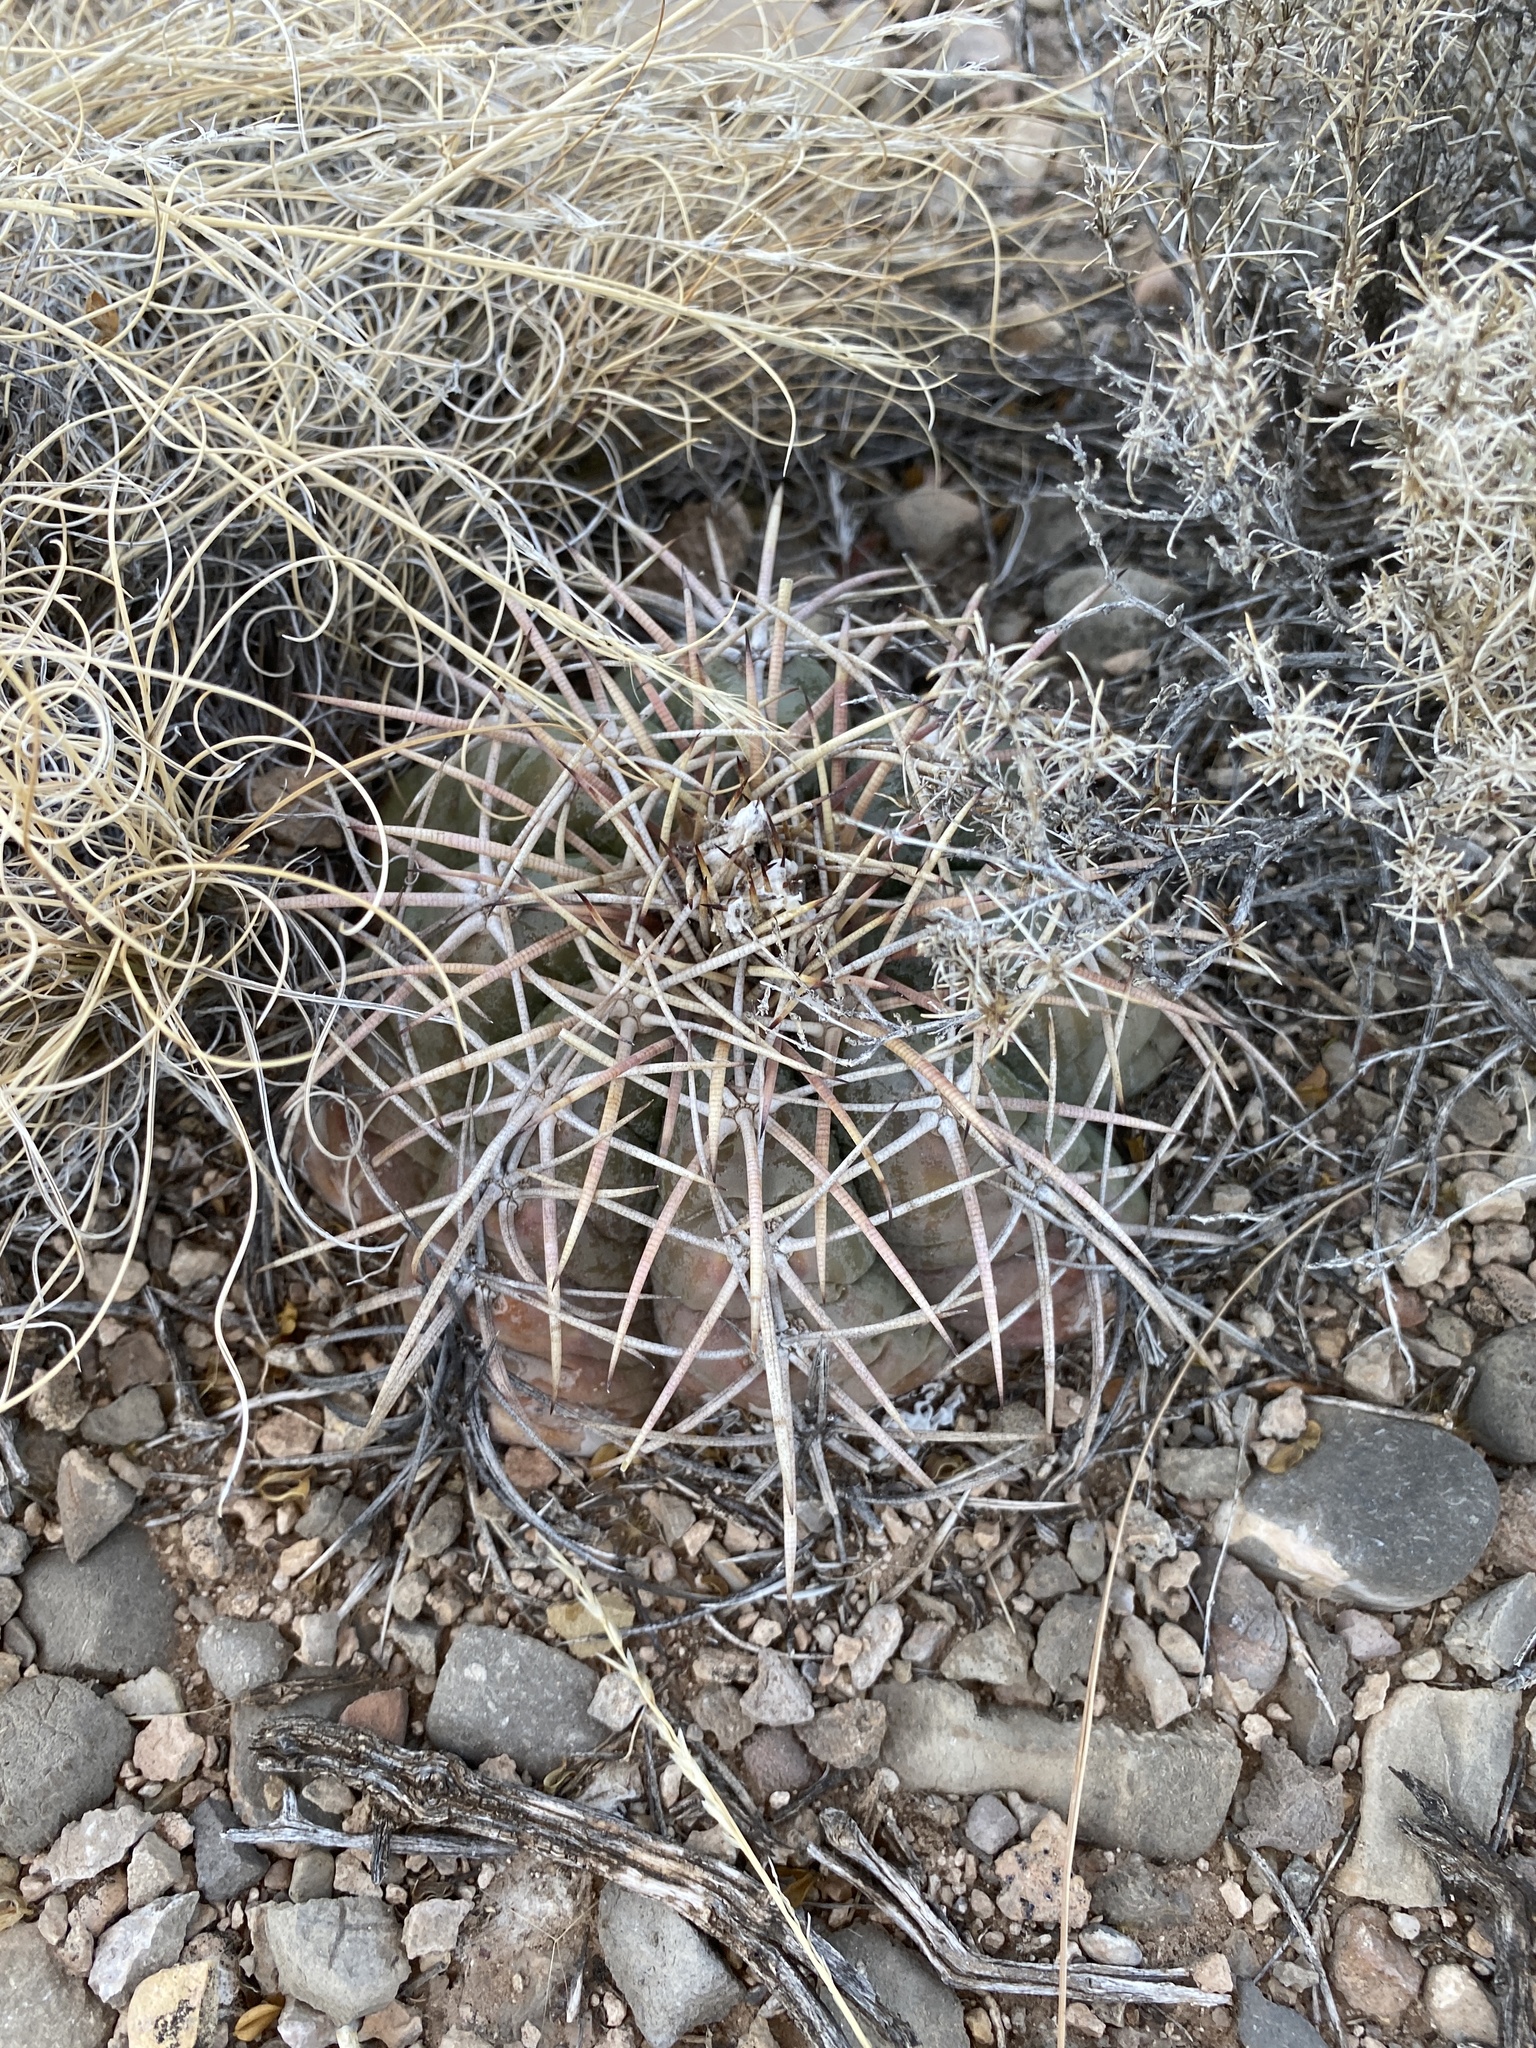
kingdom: Plantae
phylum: Tracheophyta
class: Magnoliopsida
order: Caryophyllales
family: Cactaceae
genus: Echinocactus
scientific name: Echinocactus horizonthalonius
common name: Devilshead
